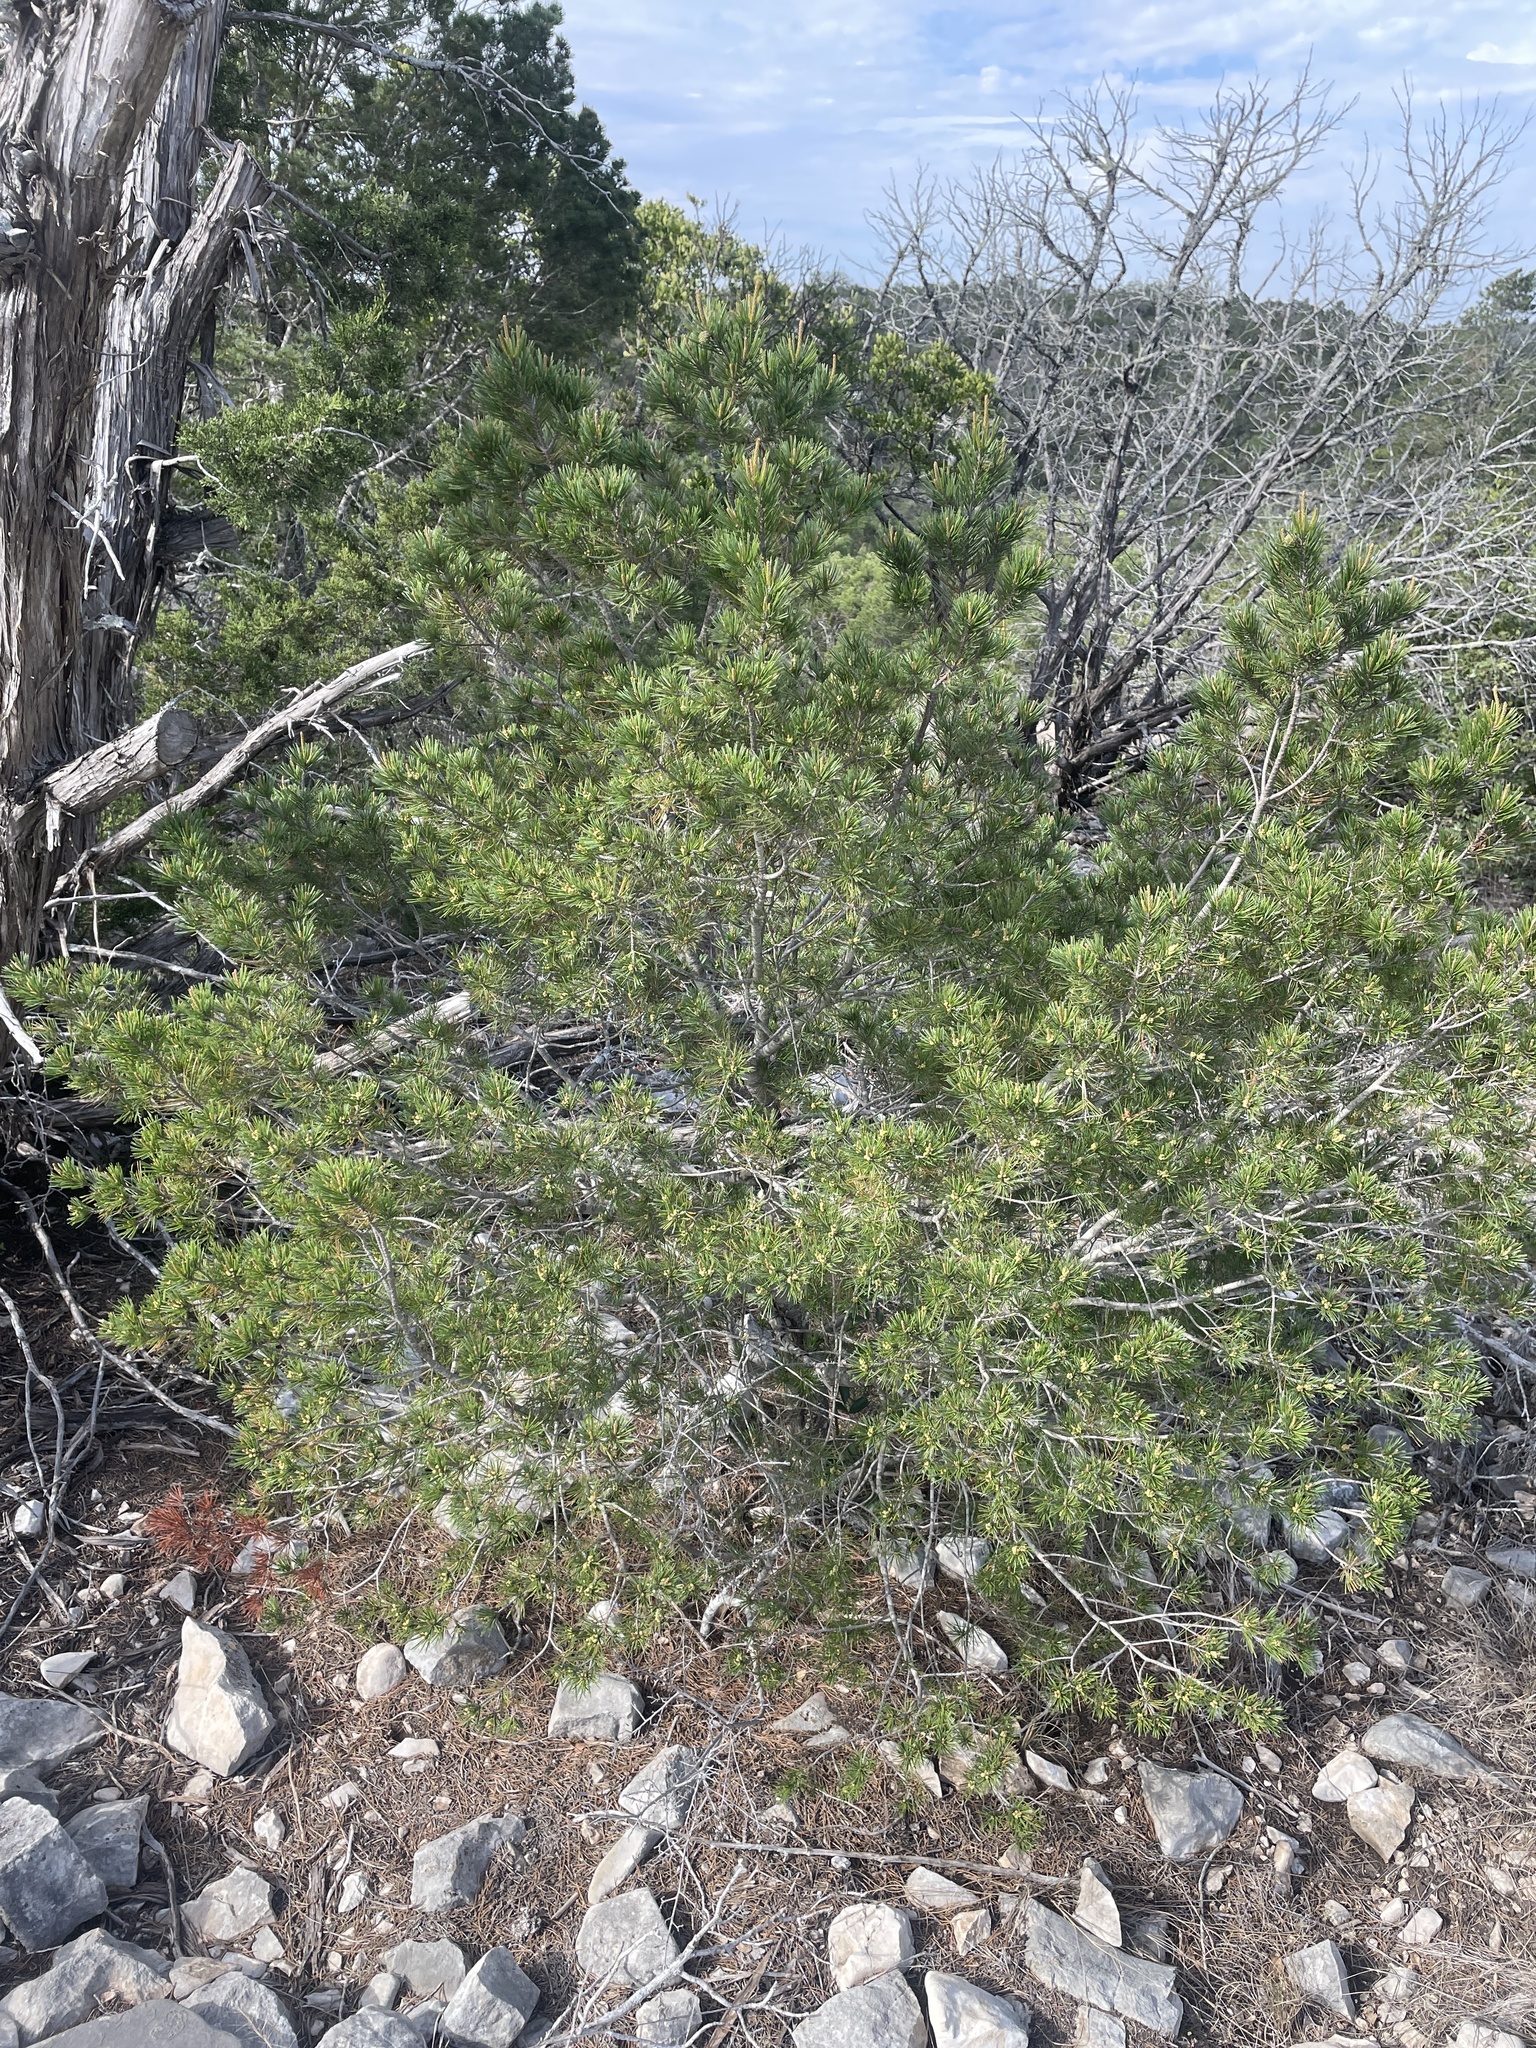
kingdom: Plantae
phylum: Tracheophyta
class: Pinopsida
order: Pinales
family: Pinaceae
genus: Pinus
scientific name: Pinus remota
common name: Nut pine
